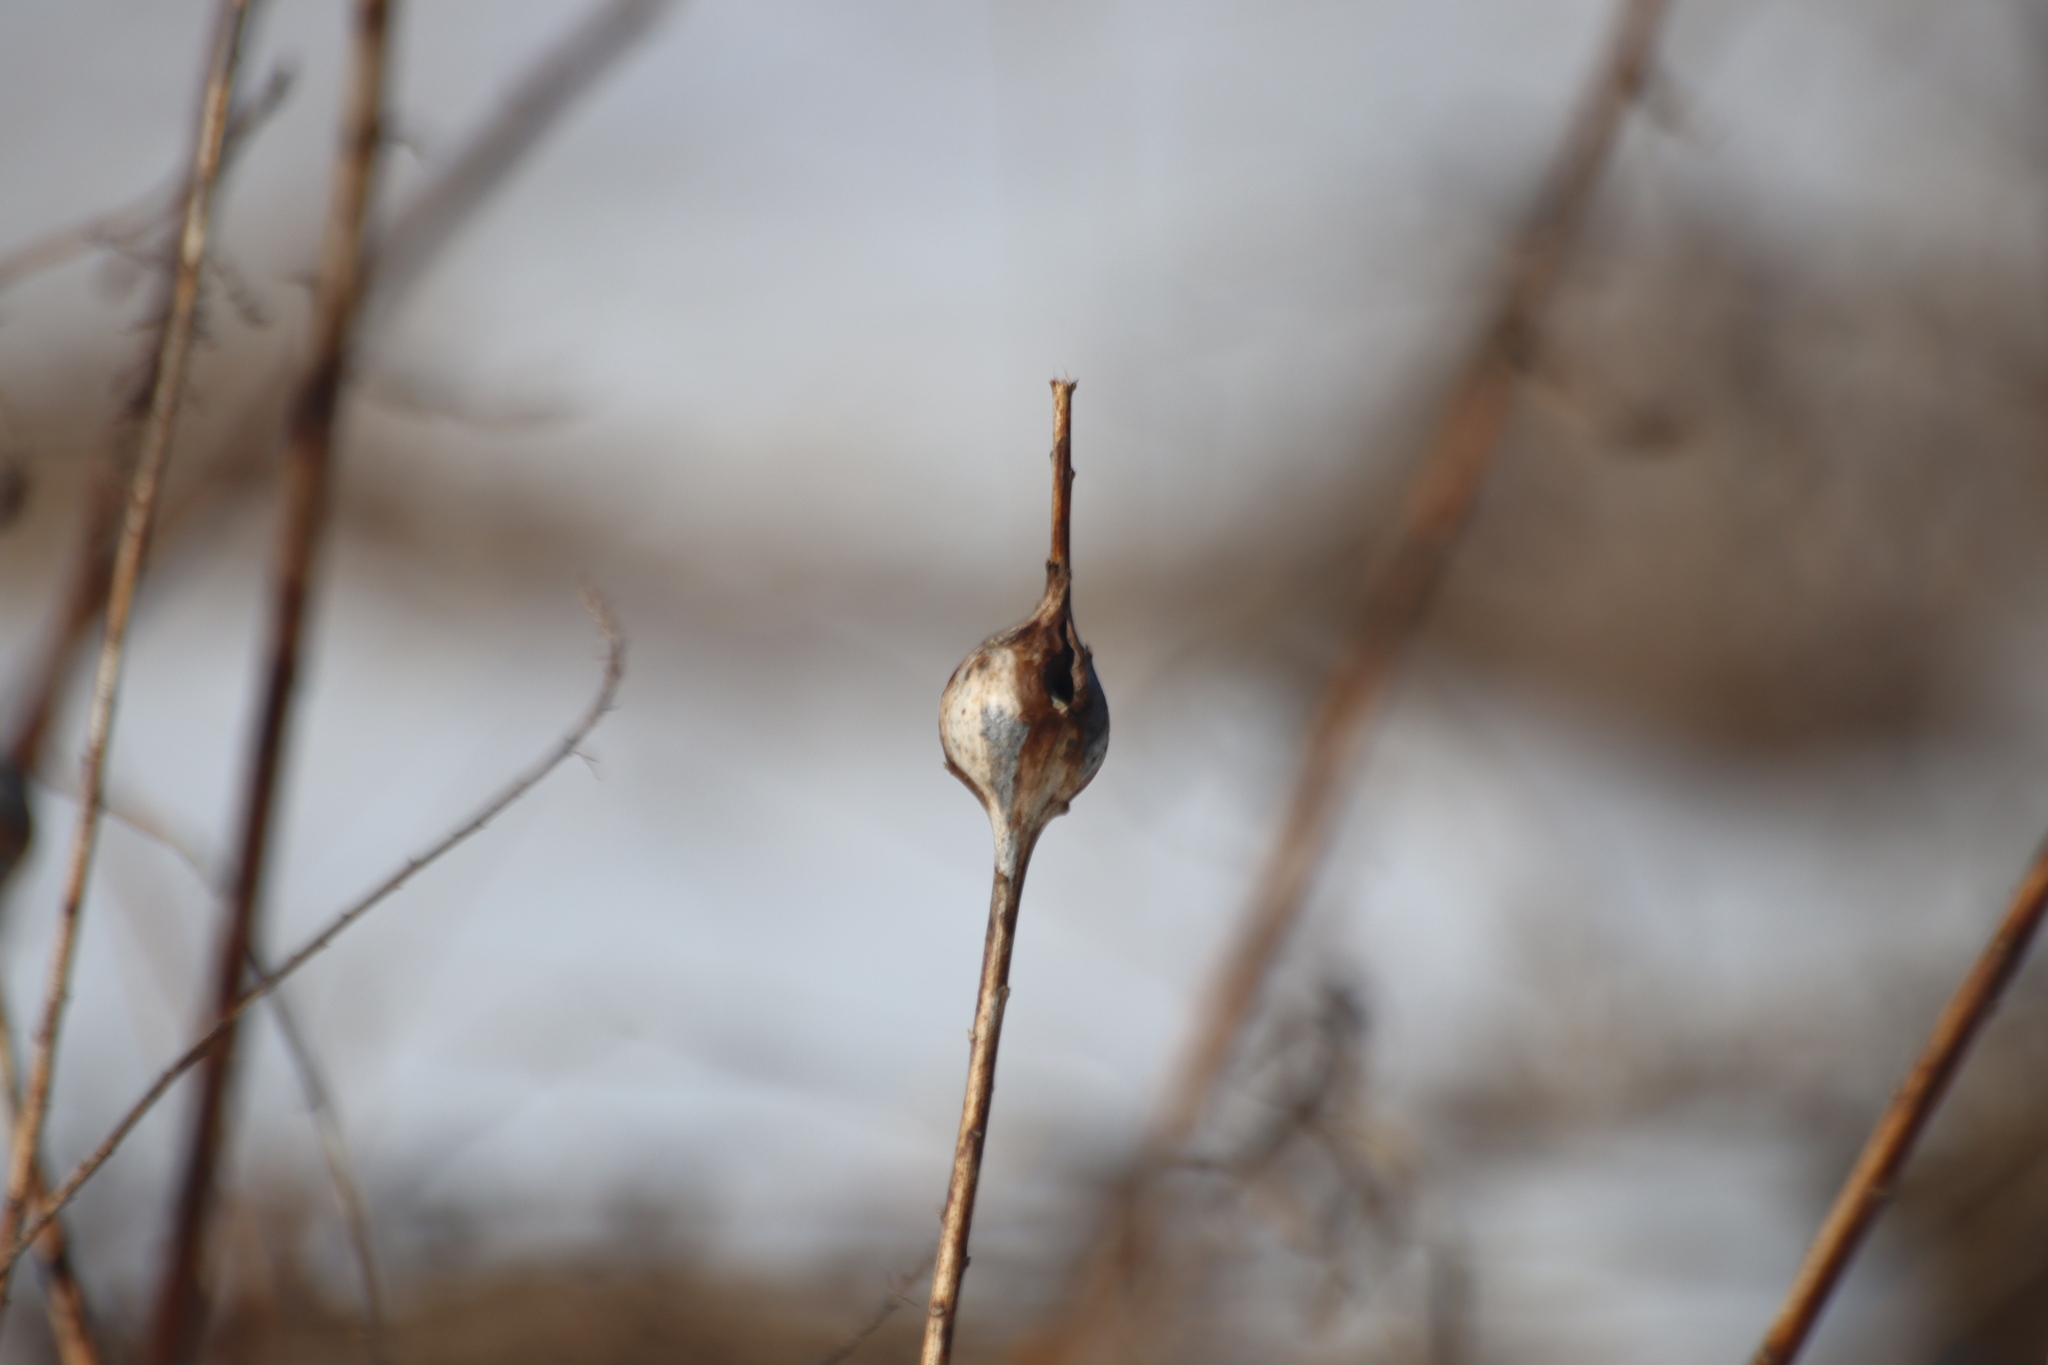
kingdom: Animalia
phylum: Arthropoda
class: Insecta
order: Diptera
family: Tephritidae
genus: Eurosta
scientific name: Eurosta solidaginis
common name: Goldenrod gall fly
